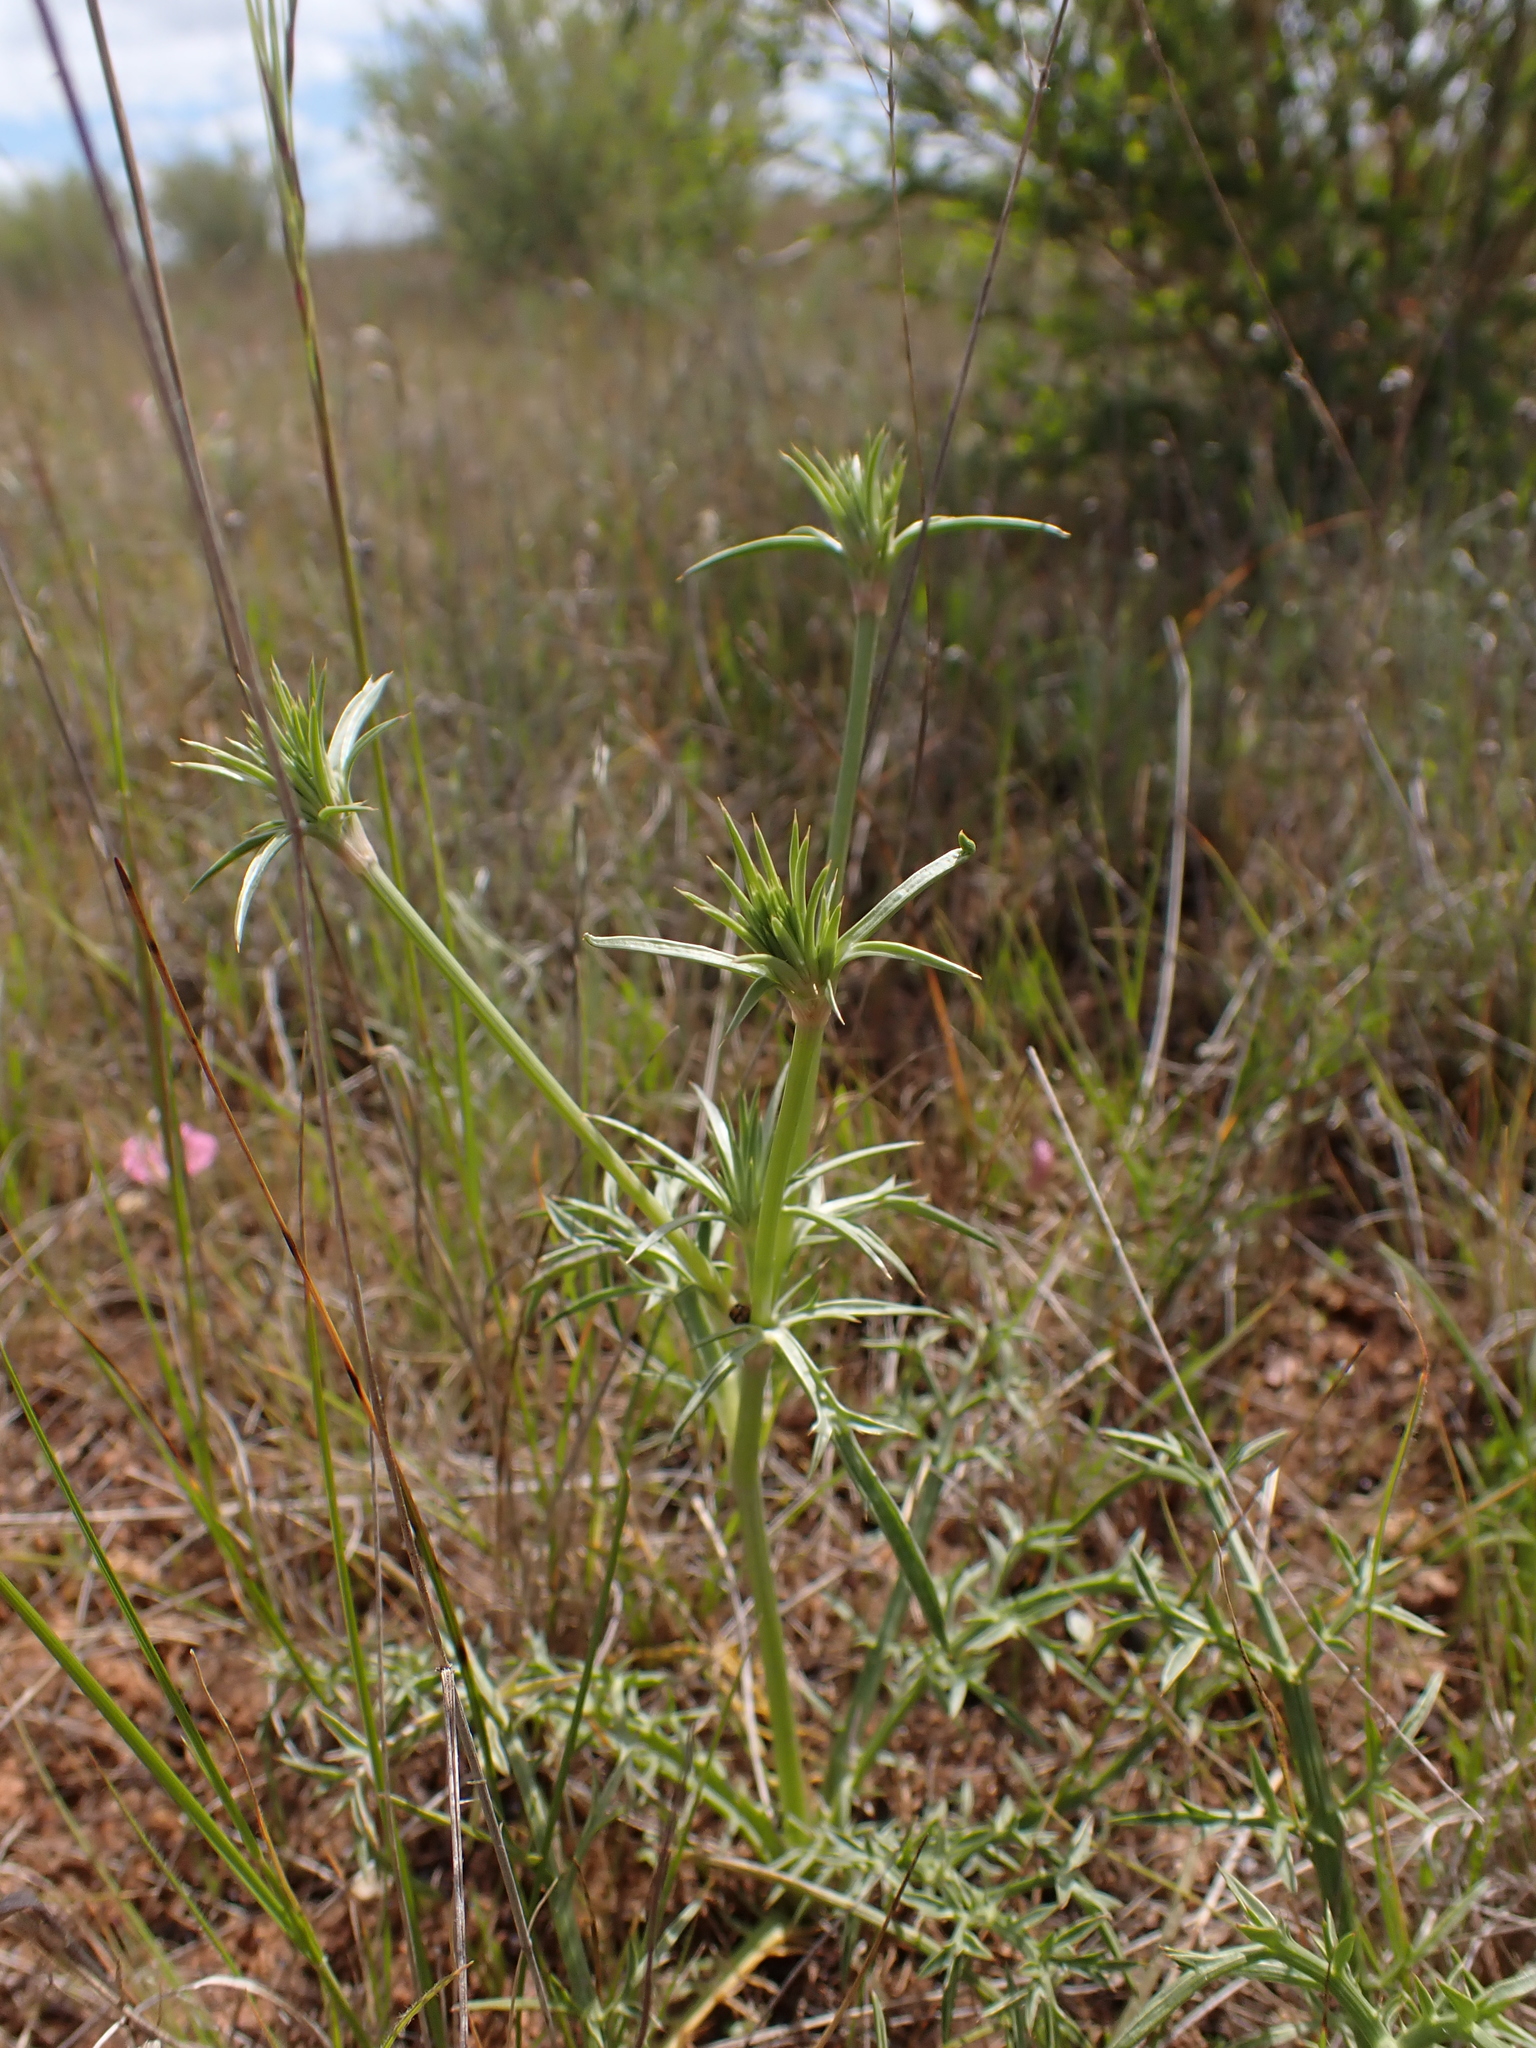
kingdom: Plantae
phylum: Tracheophyta
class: Magnoliopsida
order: Apiales
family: Apiaceae
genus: Eryngium
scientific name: Eryngium ovinum
